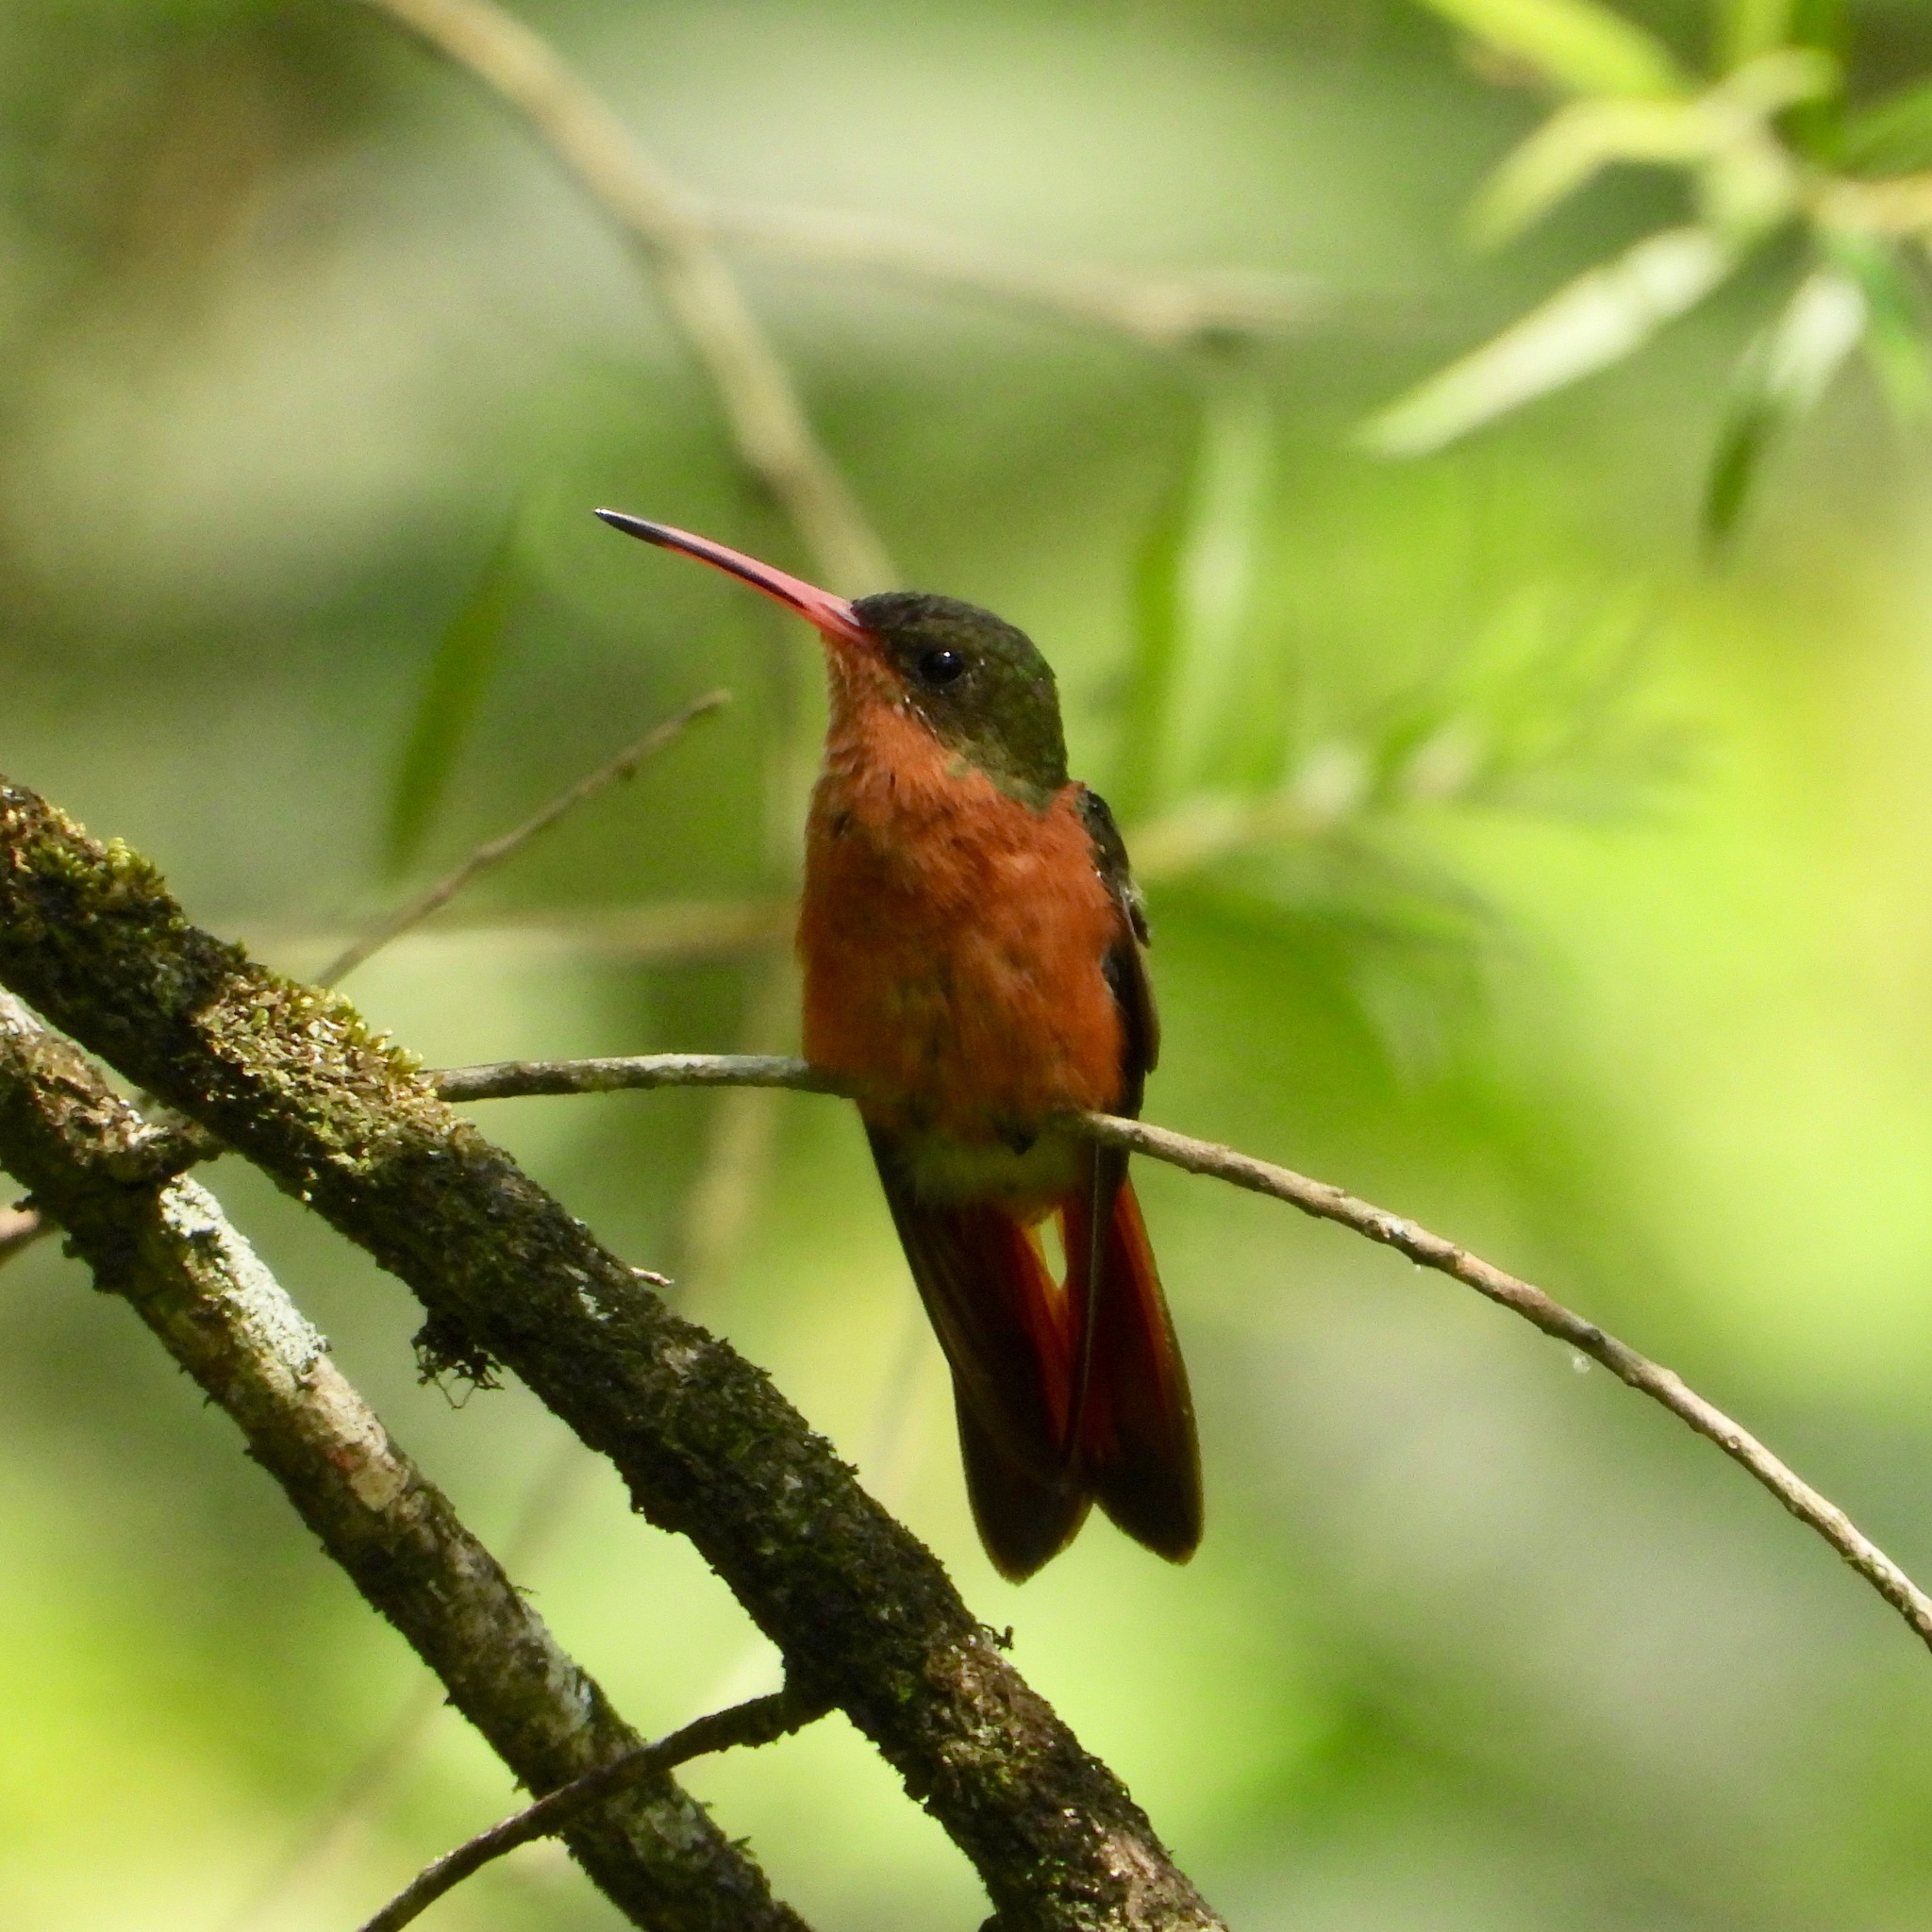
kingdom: Animalia
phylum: Chordata
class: Aves
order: Apodiformes
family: Trochilidae
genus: Amazilia
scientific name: Amazilia rutila
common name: Cinnamon hummingbird
